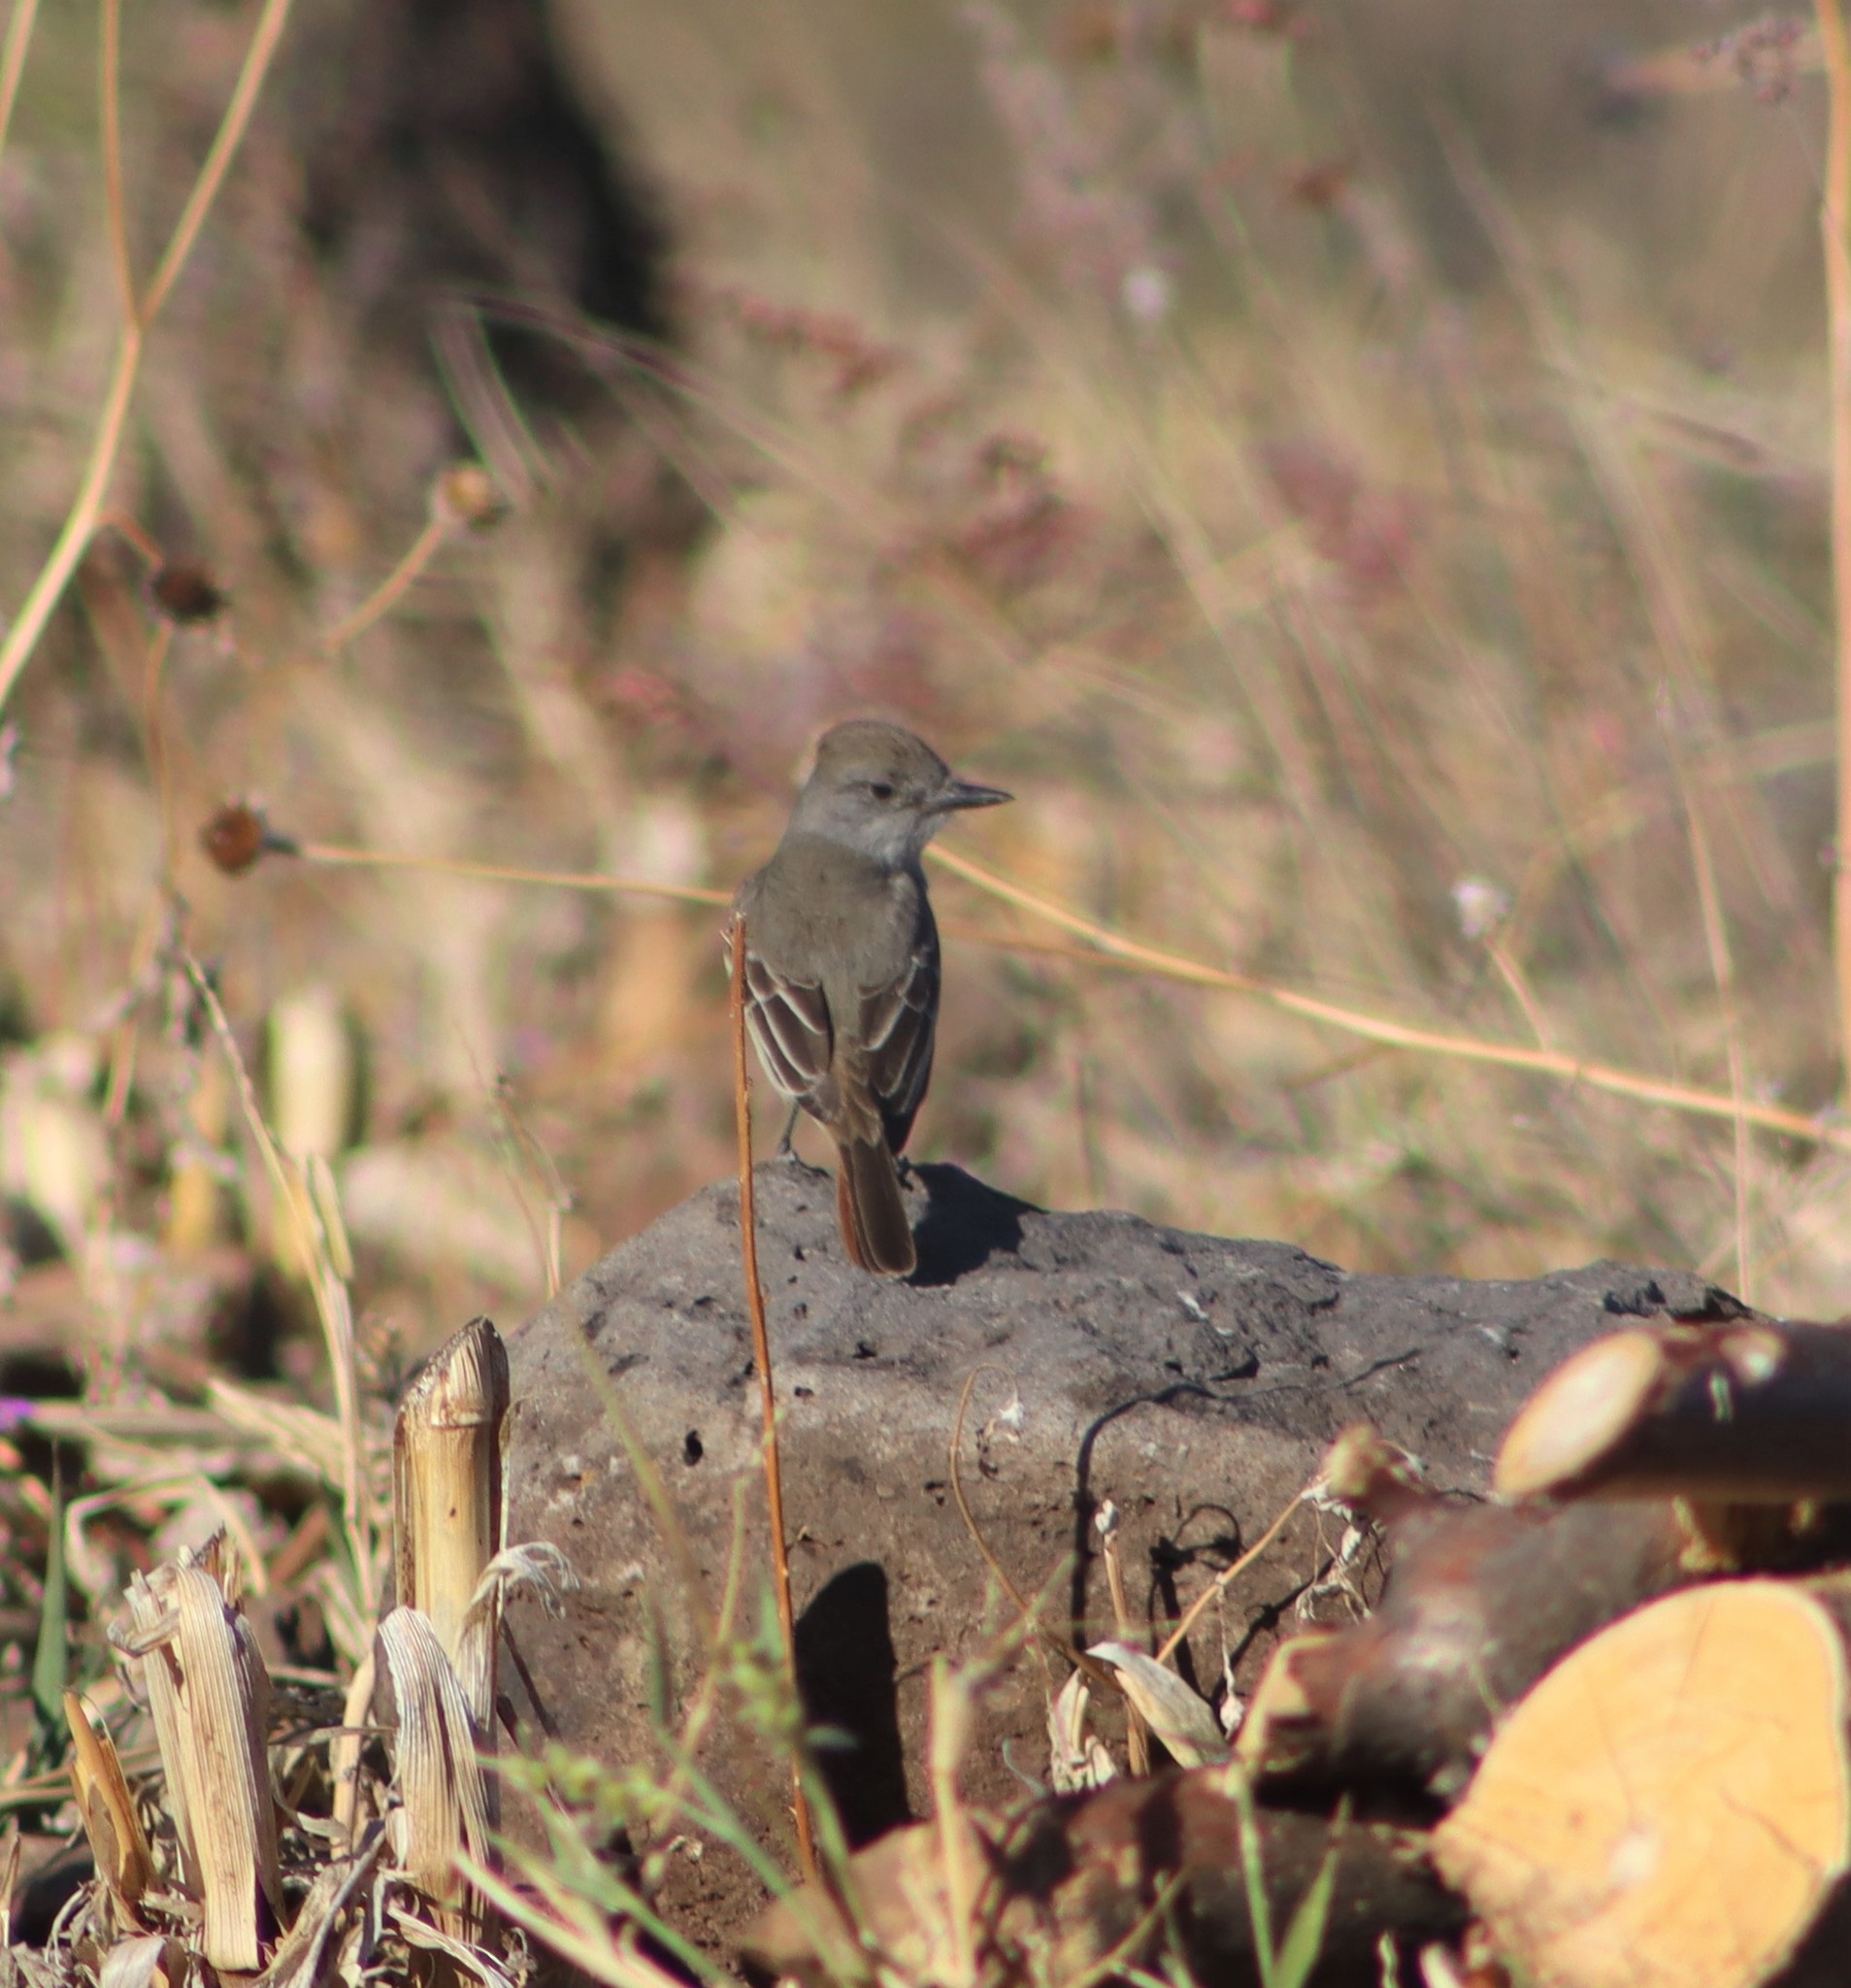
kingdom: Animalia
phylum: Chordata
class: Aves
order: Passeriformes
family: Tyrannidae
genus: Myiarchus
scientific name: Myiarchus cinerascens
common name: Ash-throated flycatcher
